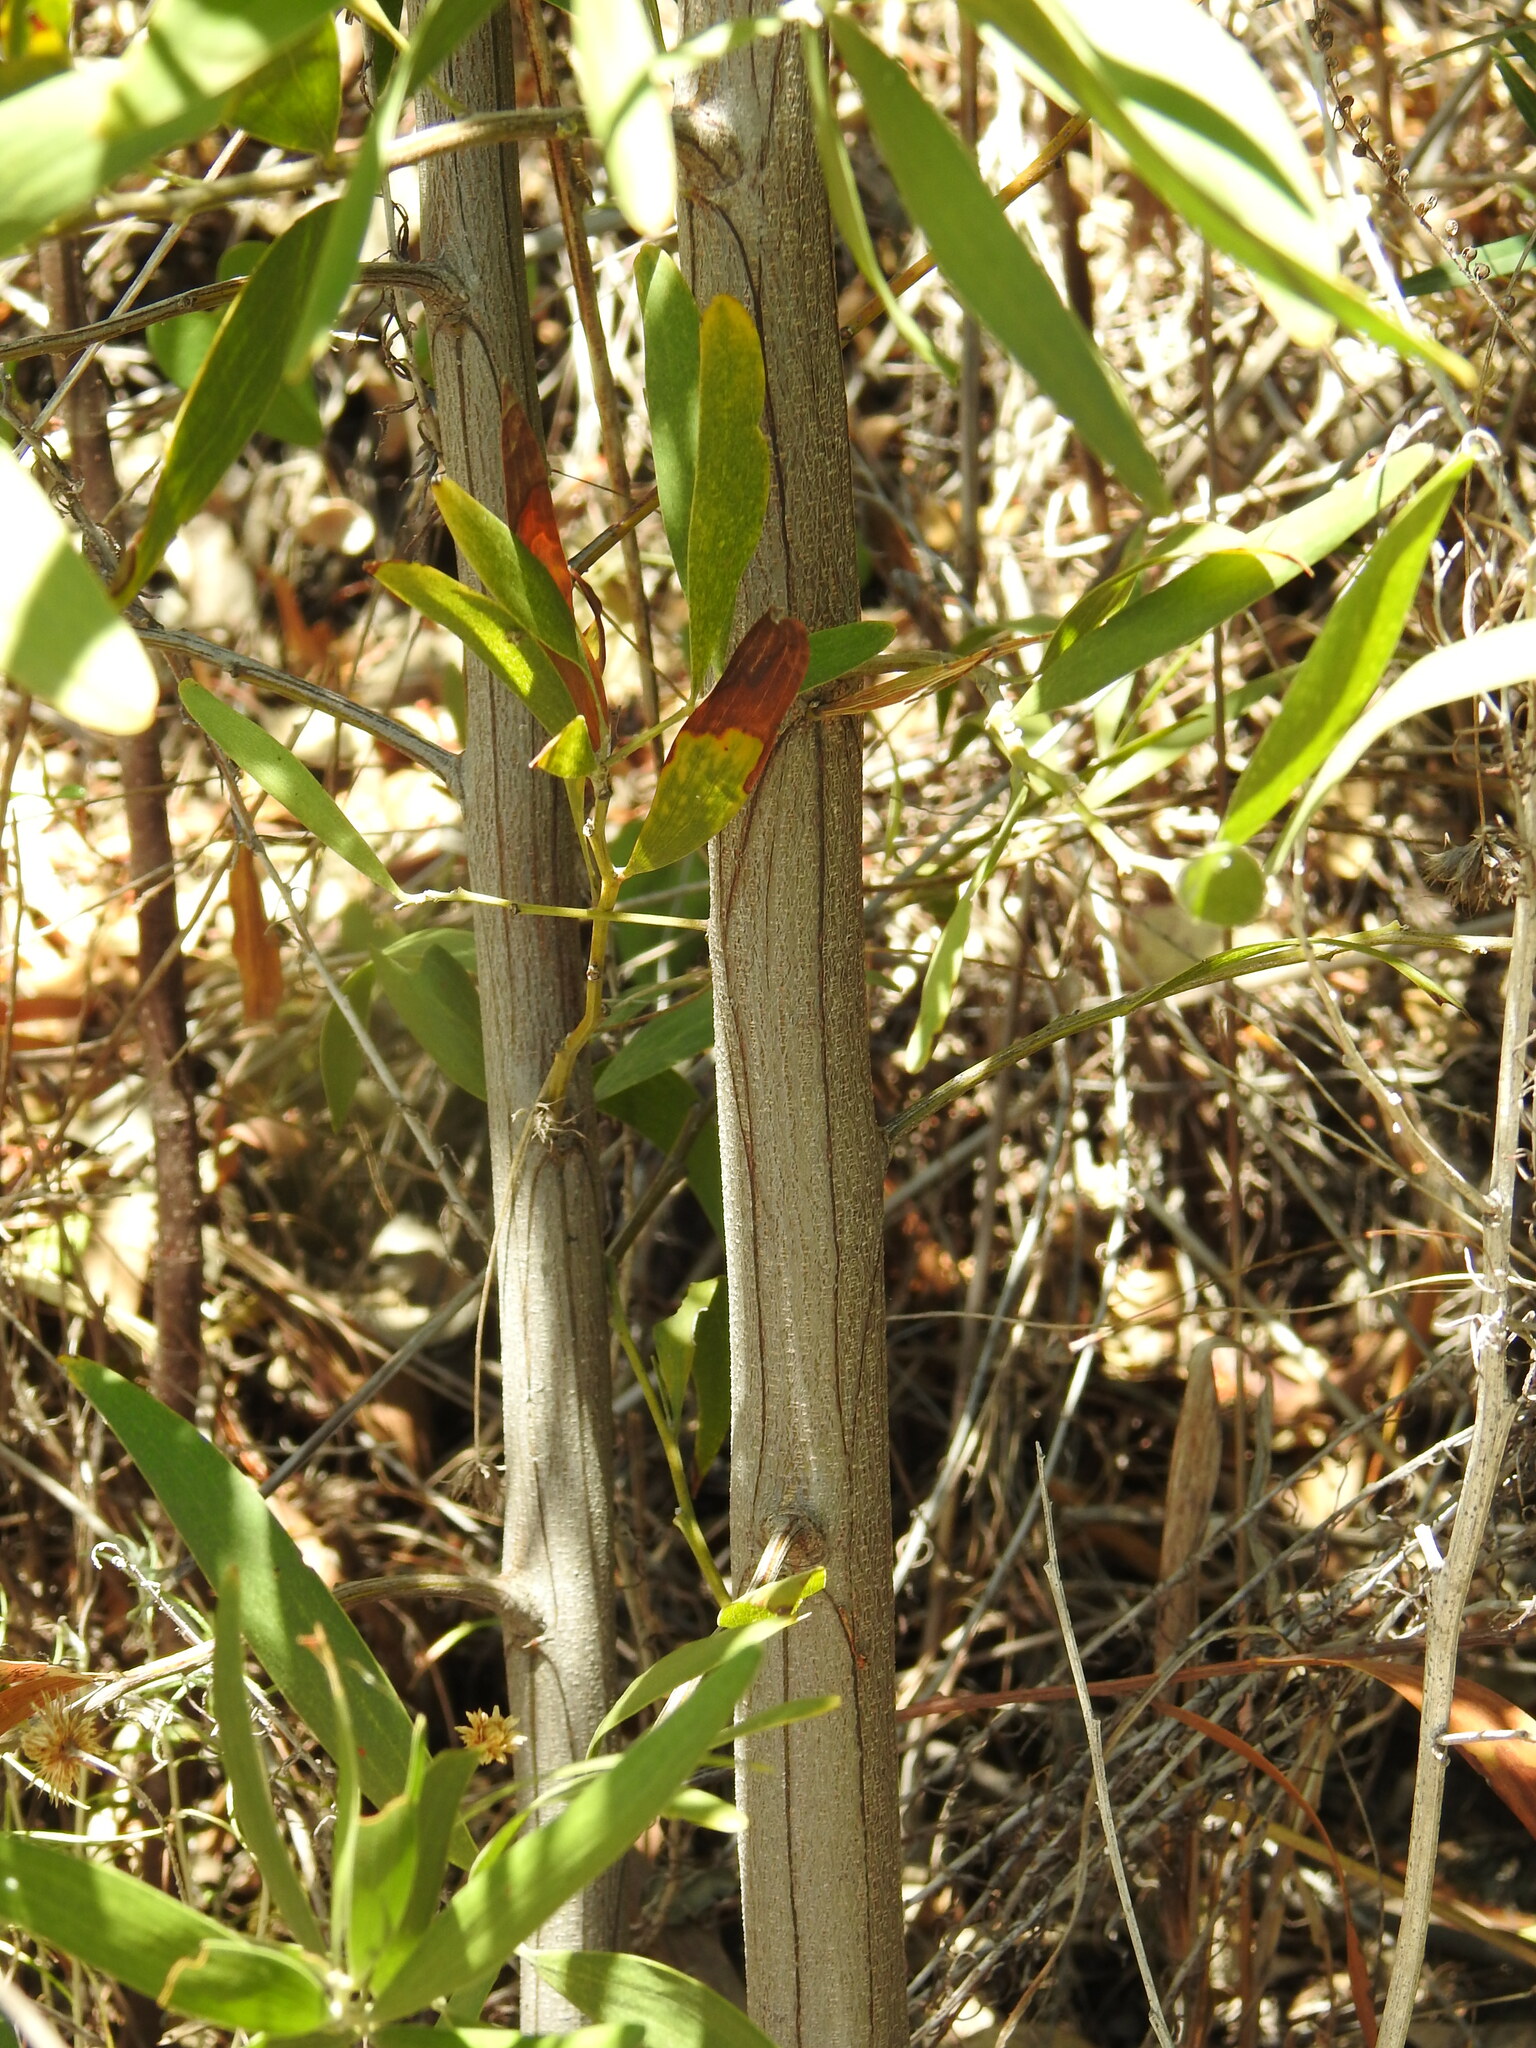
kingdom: Plantae
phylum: Tracheophyta
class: Magnoliopsida
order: Fabales
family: Fabaceae
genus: Acacia
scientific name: Acacia melanoxylon
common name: Blackwood
